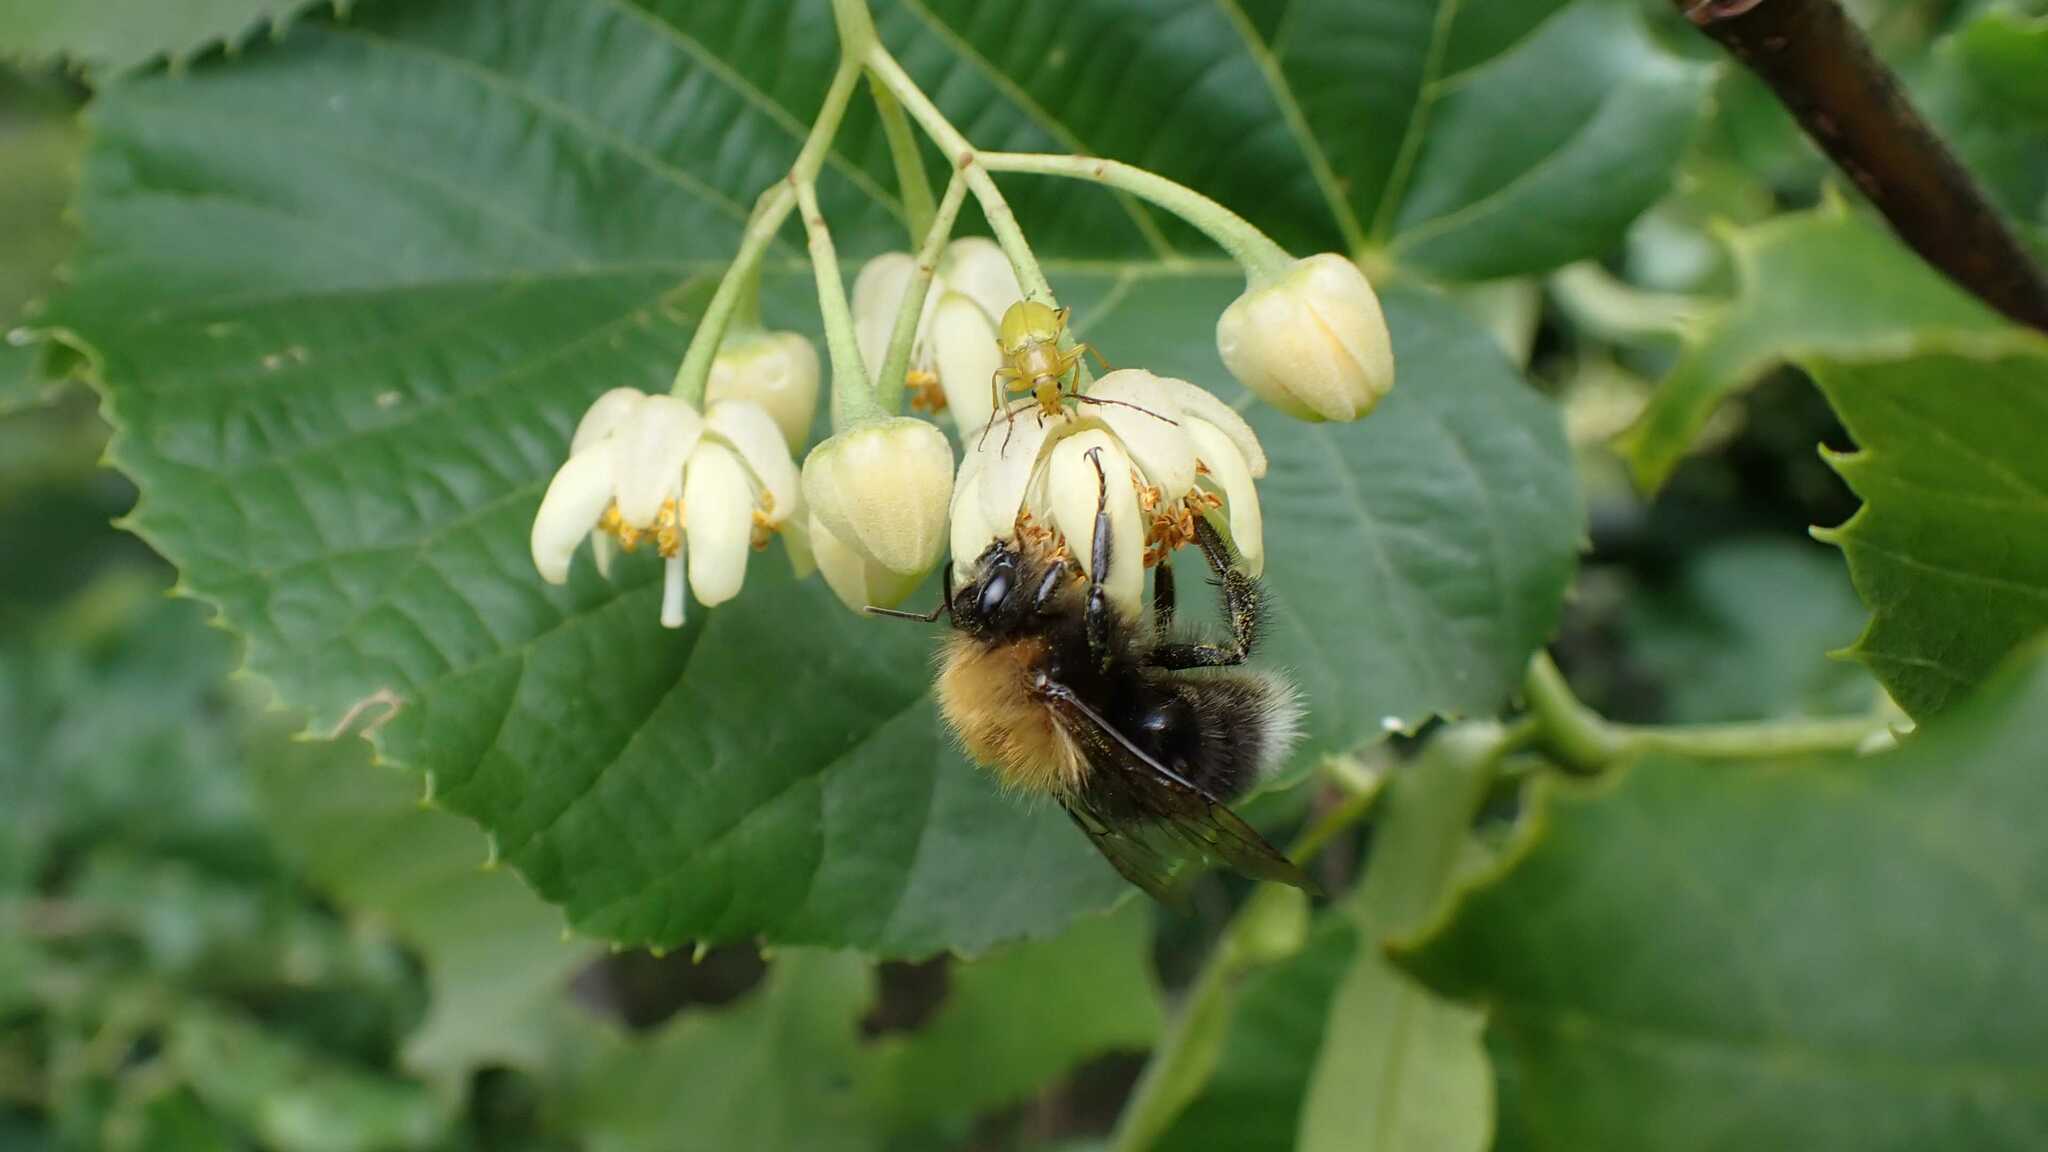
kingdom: Animalia
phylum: Arthropoda
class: Insecta
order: Hymenoptera
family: Apidae
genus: Bombus
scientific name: Bombus hypnorum
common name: New garden bumblebee
